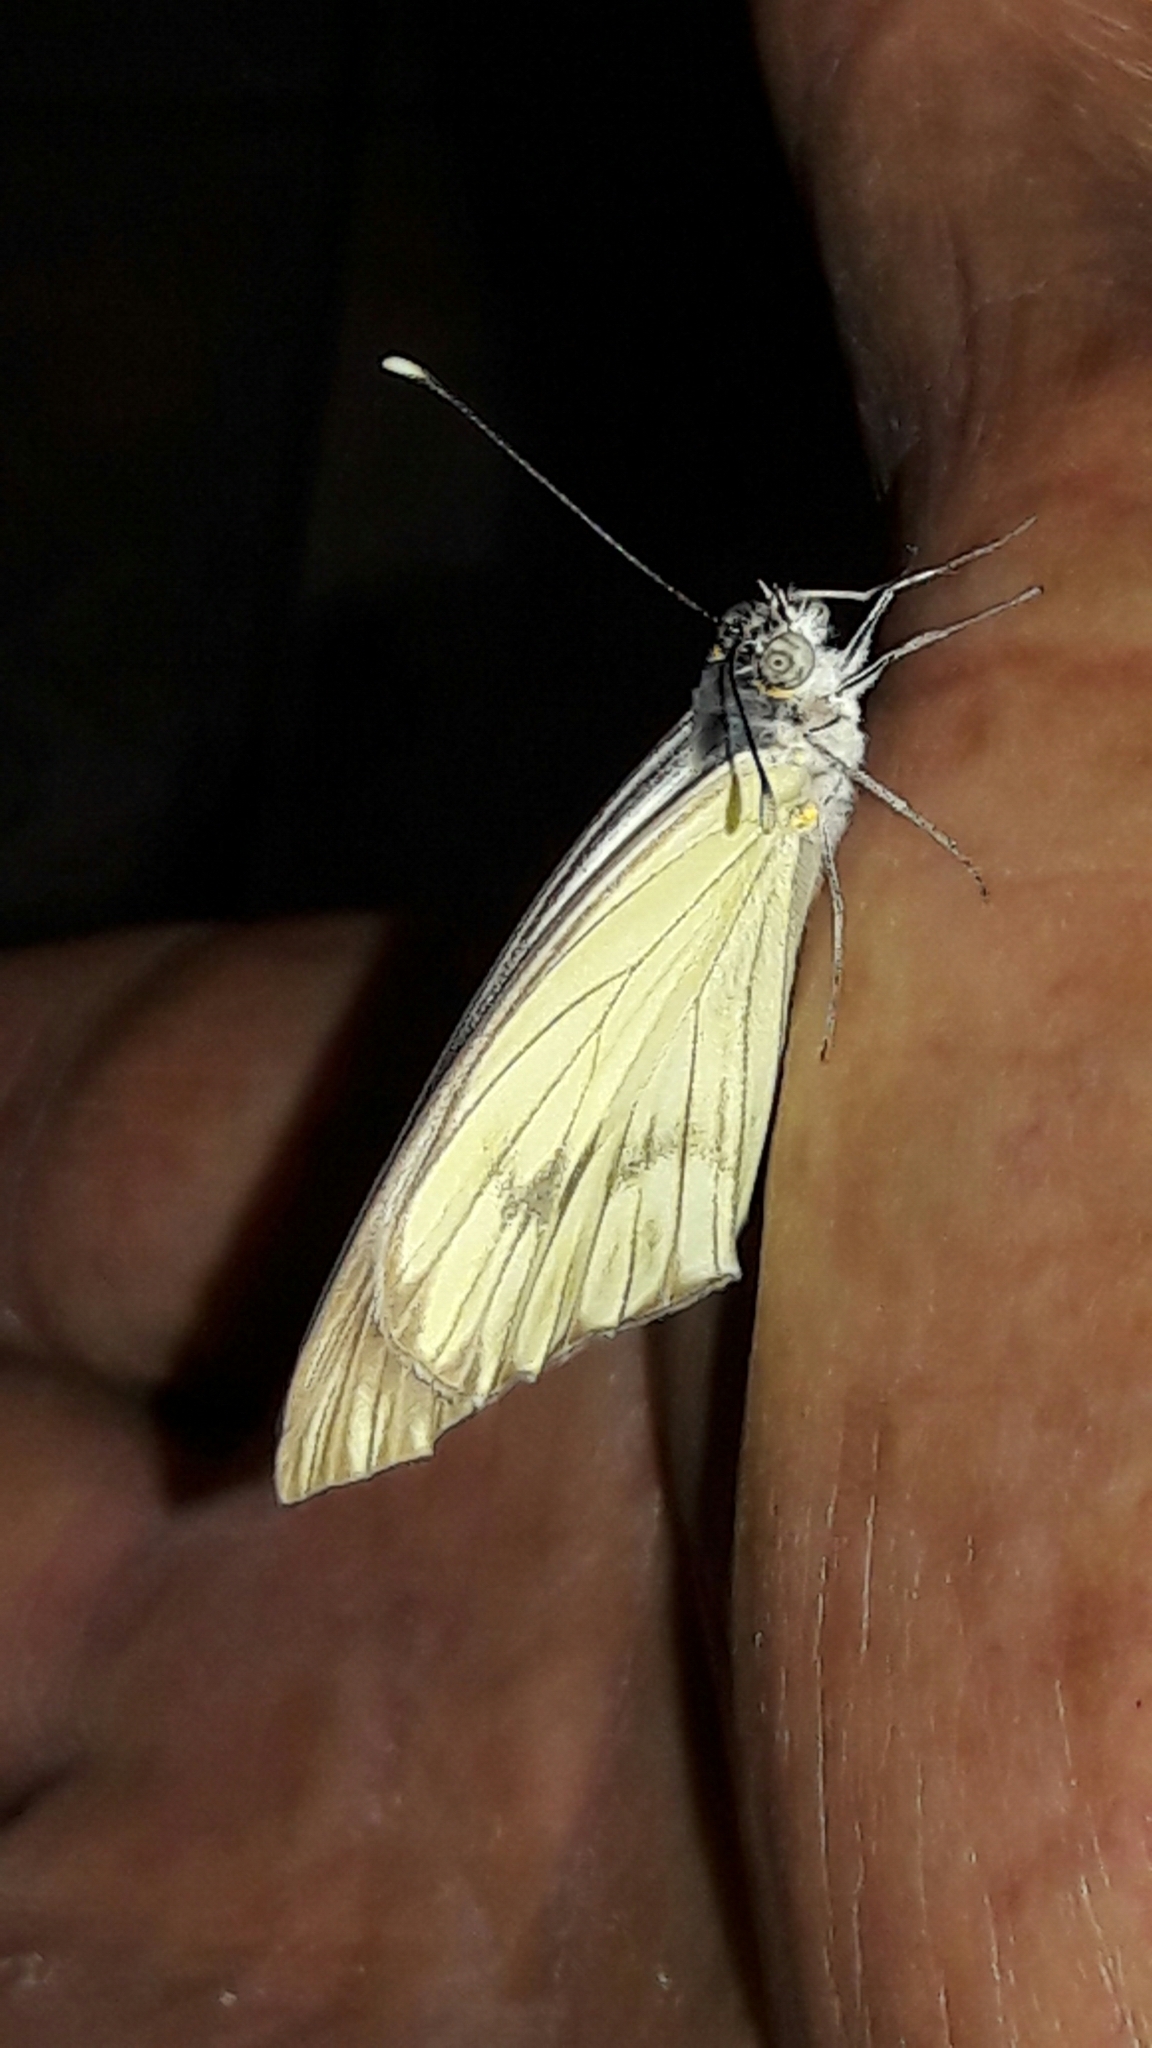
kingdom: Animalia
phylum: Arthropoda
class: Insecta
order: Lepidoptera
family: Pieridae
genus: Ascia
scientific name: Ascia monuste
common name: Great southern white
